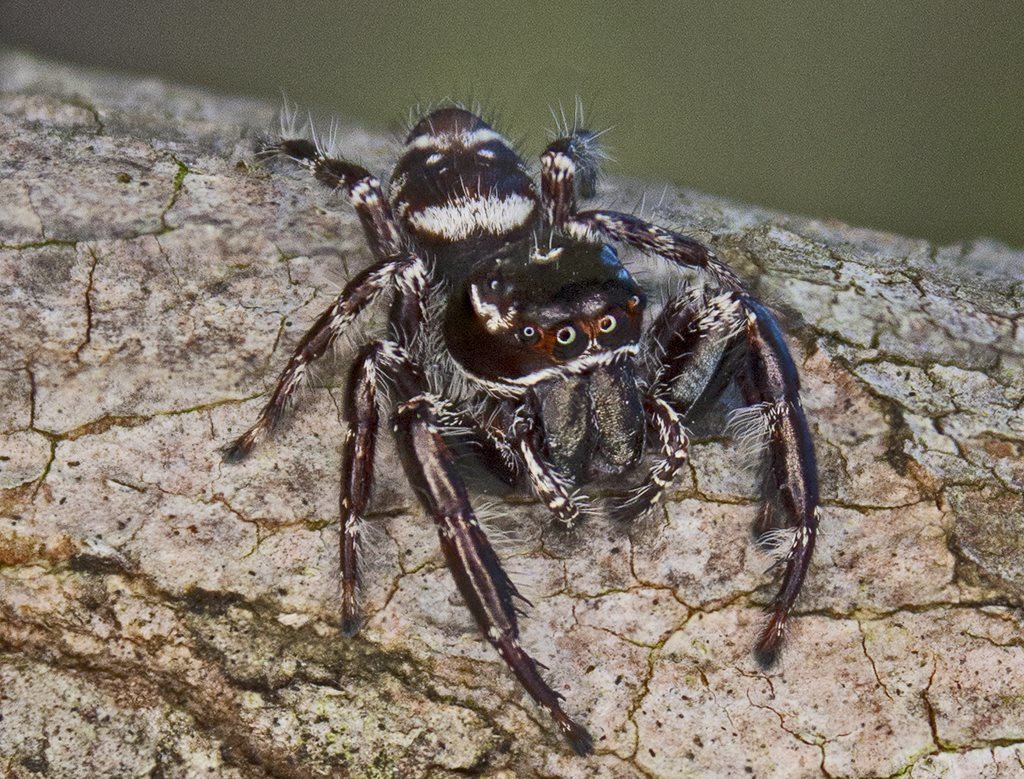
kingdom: Animalia
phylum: Arthropoda
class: Arachnida
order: Araneae
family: Salticidae
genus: Sandalodes
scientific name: Sandalodes superbus
